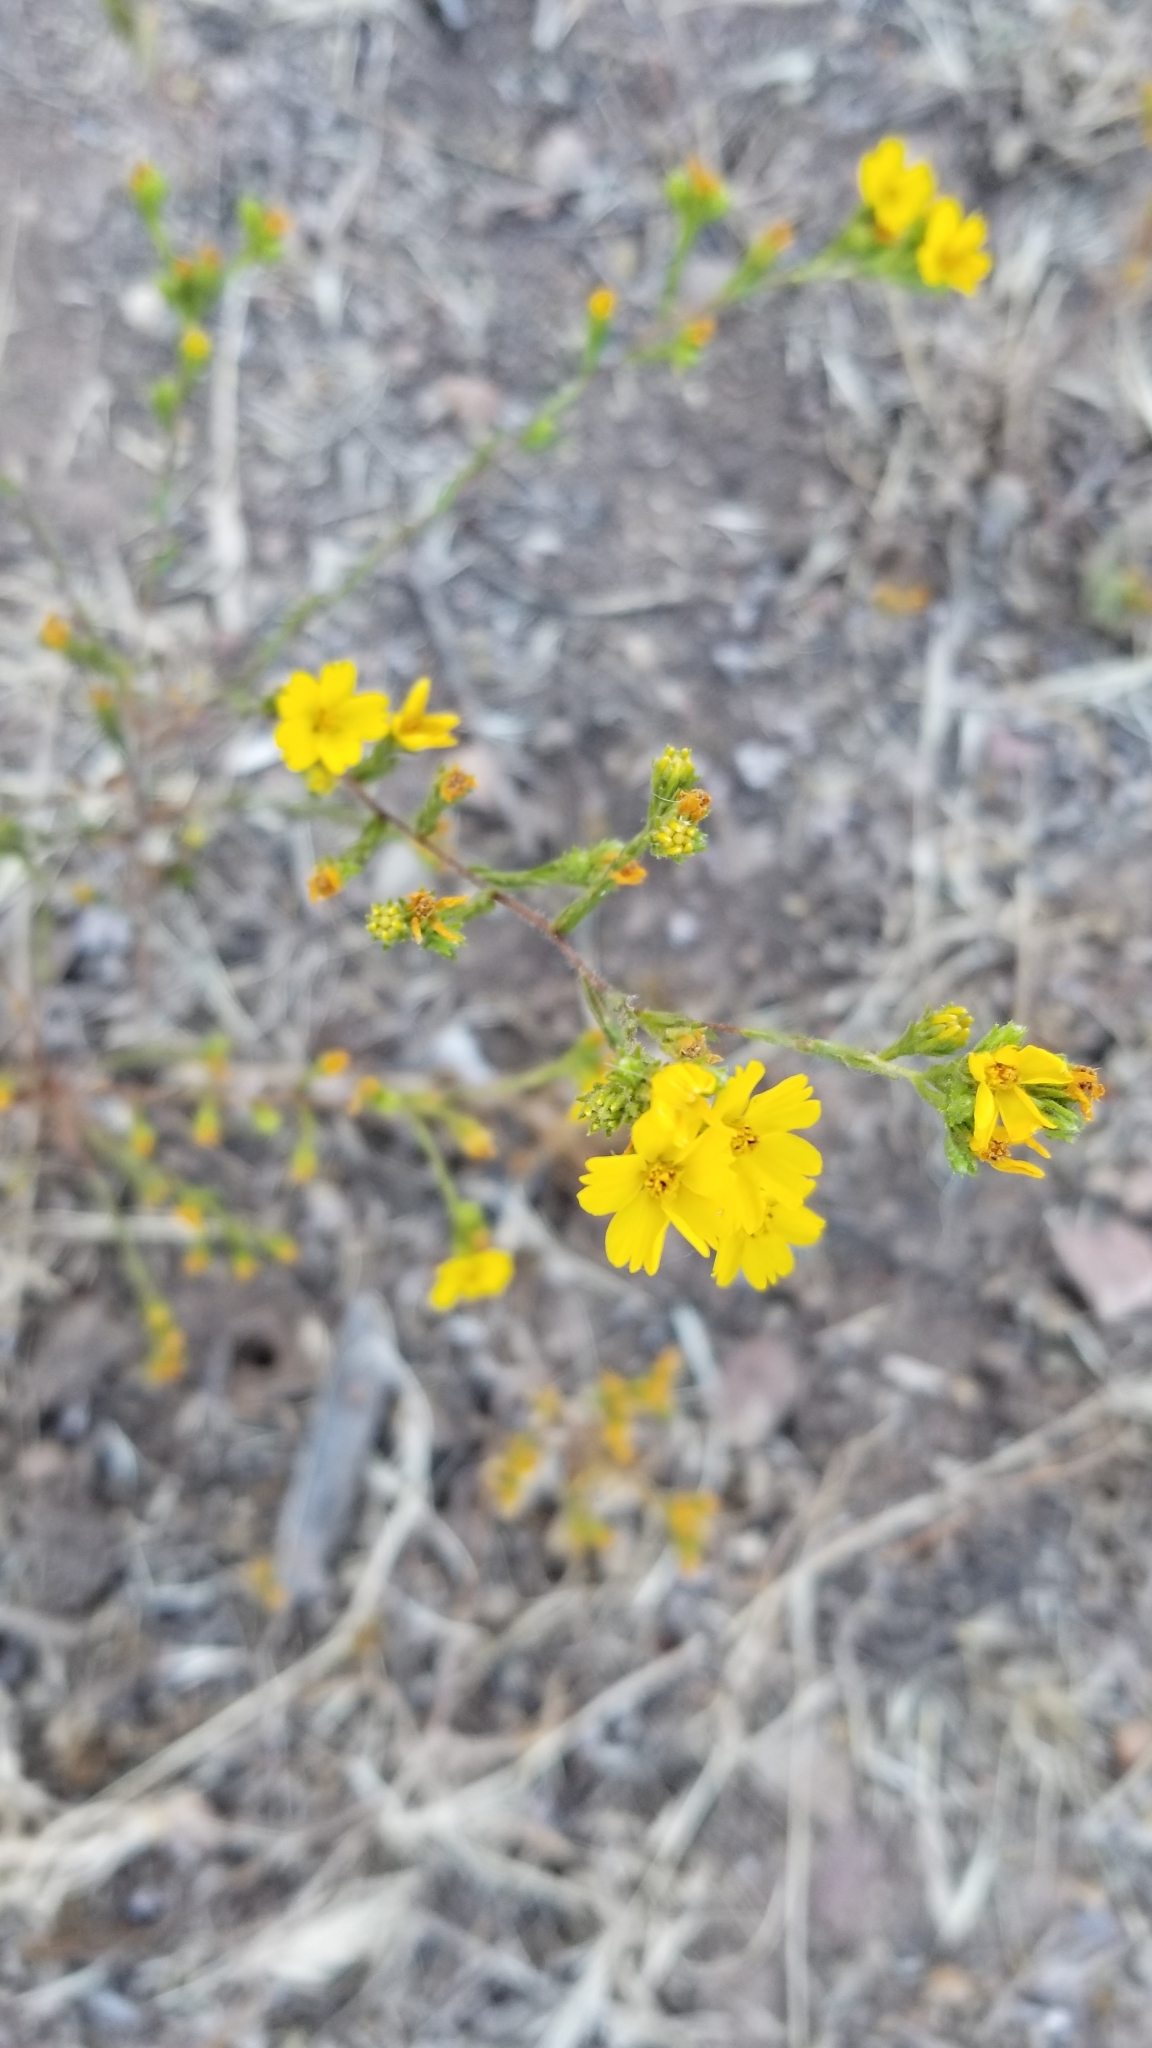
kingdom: Plantae
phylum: Tracheophyta
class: Magnoliopsida
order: Asterales
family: Asteraceae
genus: Deinandra
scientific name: Deinandra fasciculata
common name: Clustered tarweed
